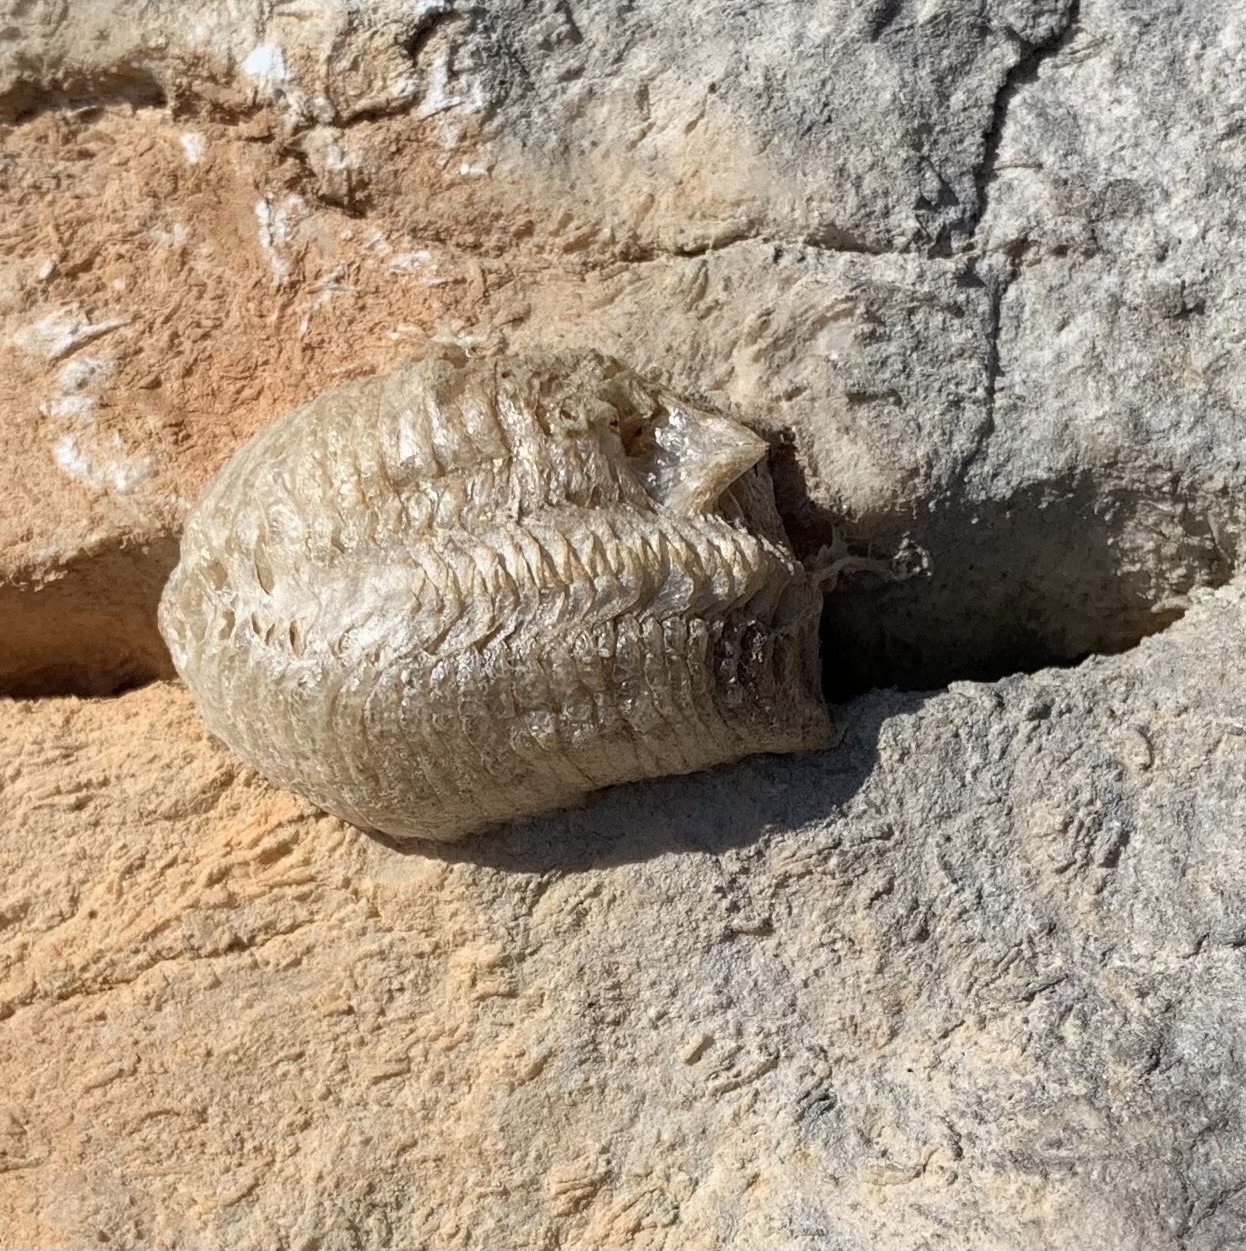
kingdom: Animalia
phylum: Arthropoda
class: Insecta
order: Mantodea
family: Mantidae
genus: Mantis
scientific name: Mantis religiosa
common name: Praying mantis
